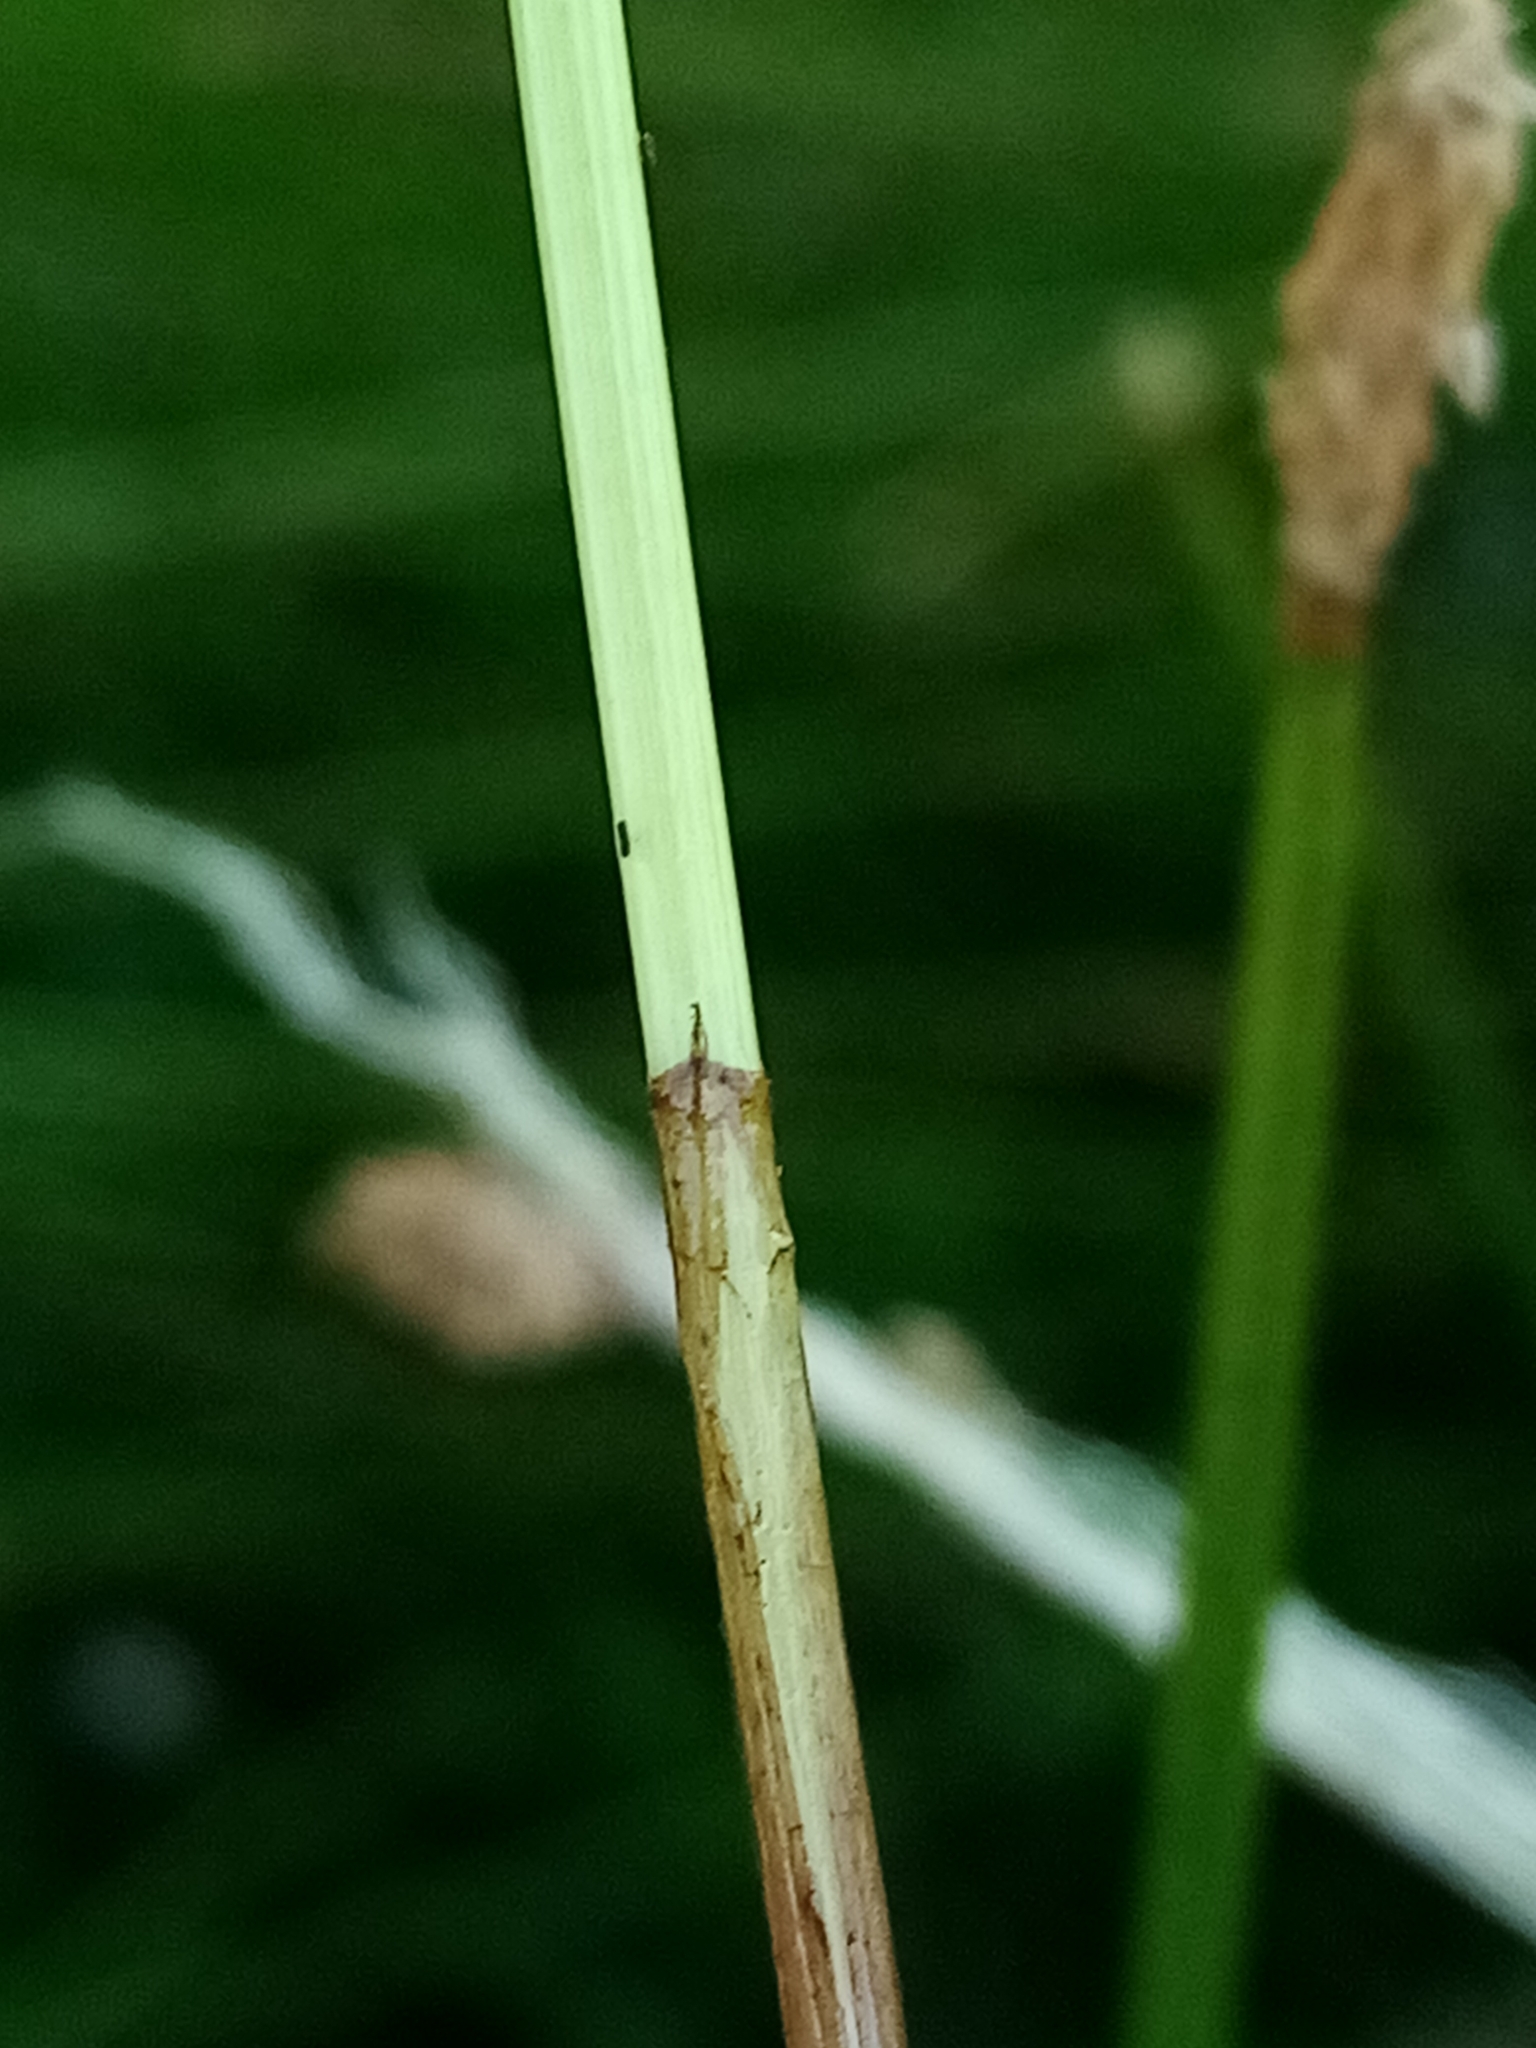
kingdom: Plantae
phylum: Tracheophyta
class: Liliopsida
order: Poales
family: Cyperaceae
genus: Eleocharis
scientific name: Eleocharis acuta
